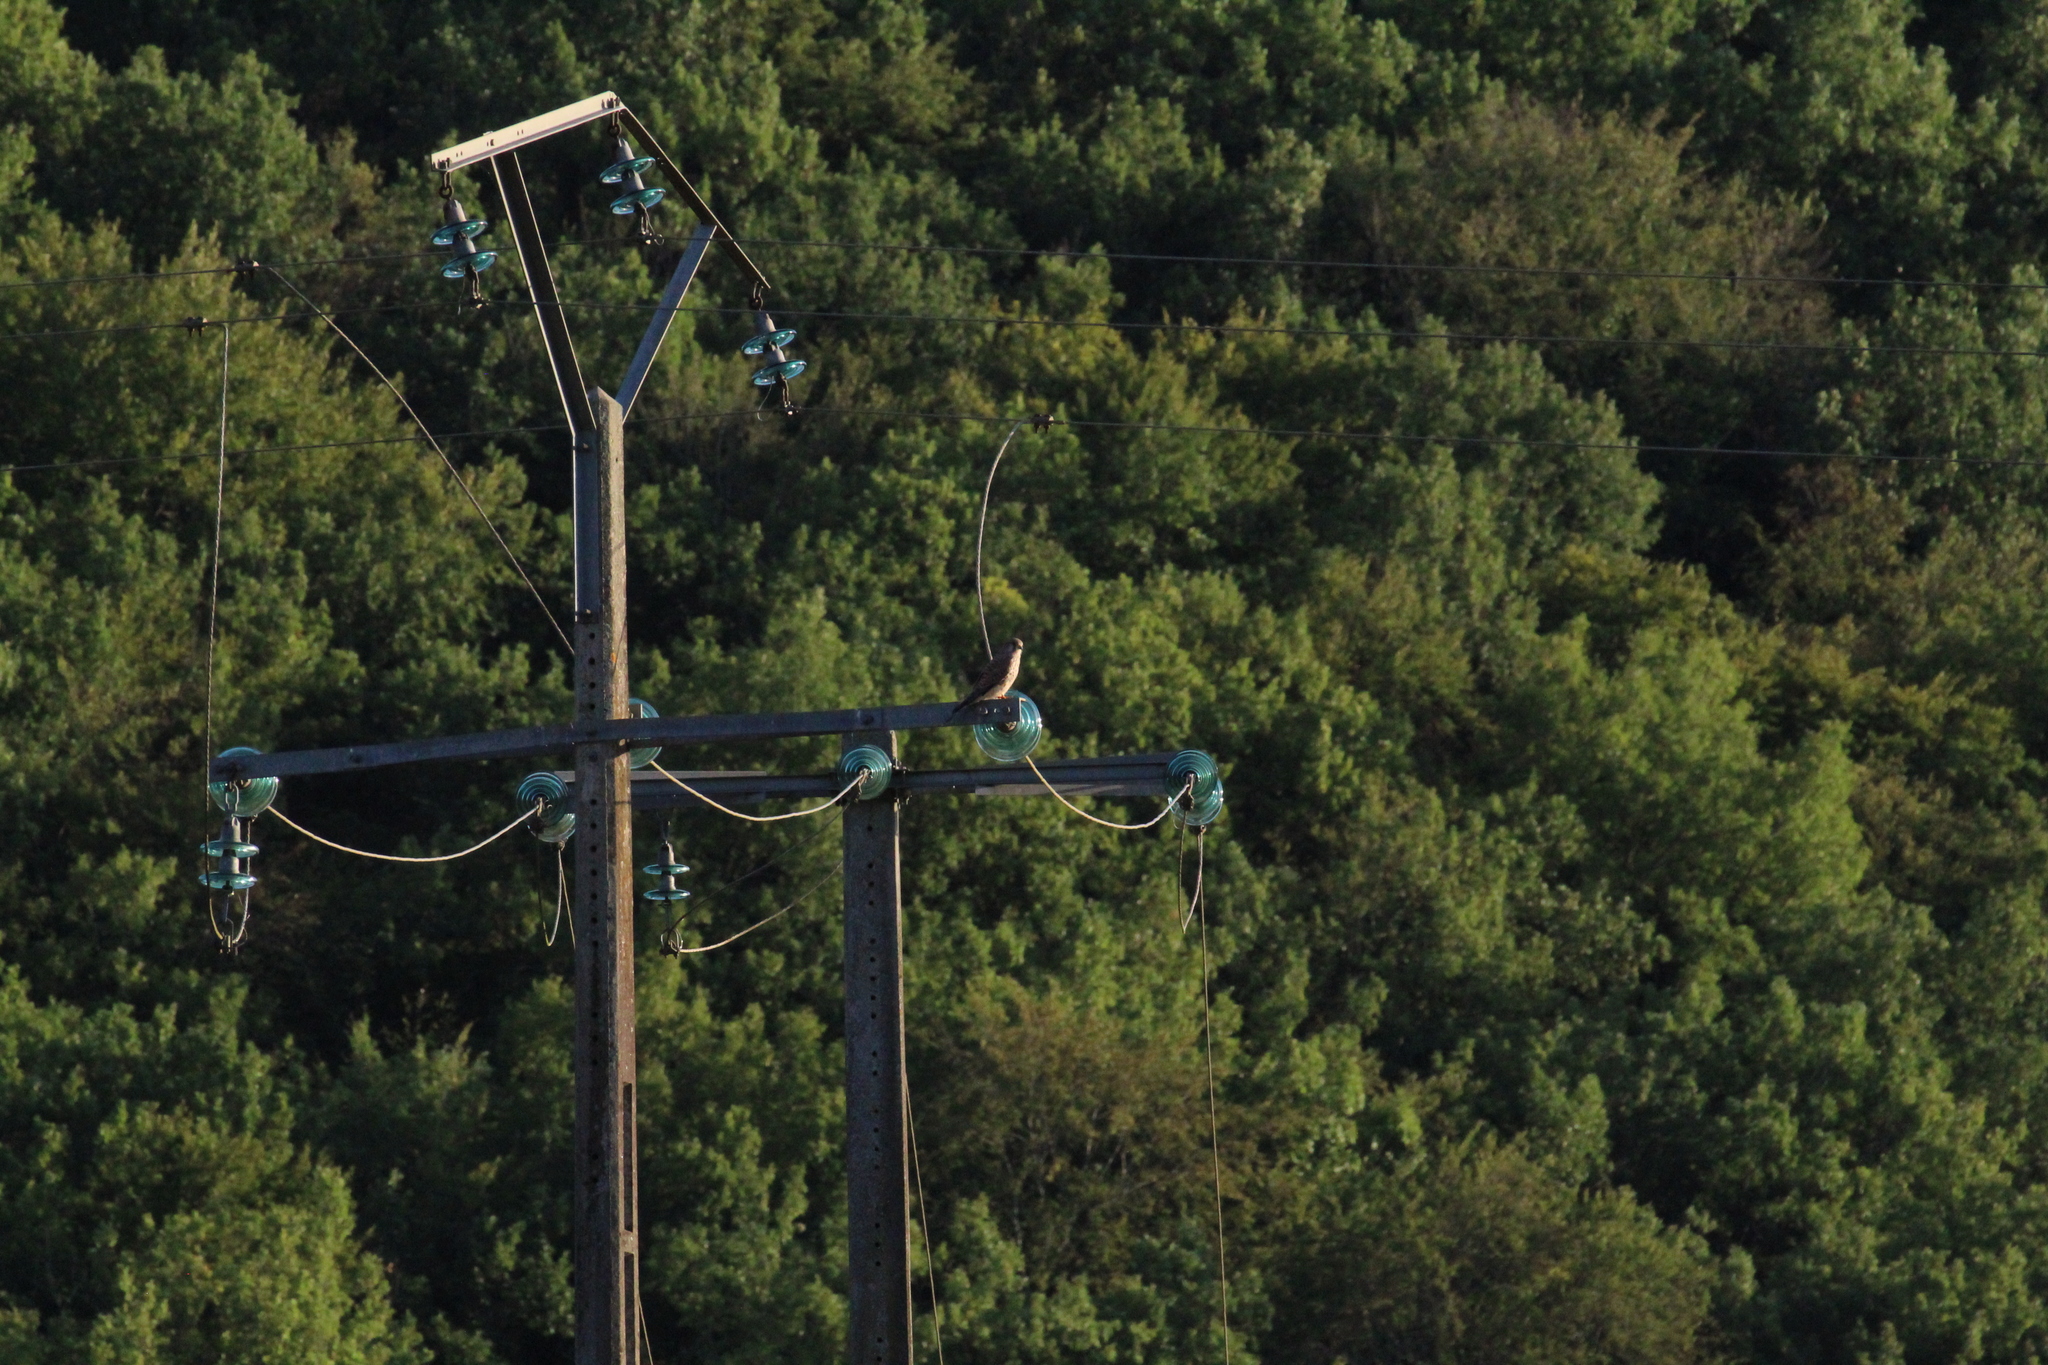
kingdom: Animalia
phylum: Chordata
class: Aves
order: Falconiformes
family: Falconidae
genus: Falco
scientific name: Falco tinnunculus
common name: Common kestrel
